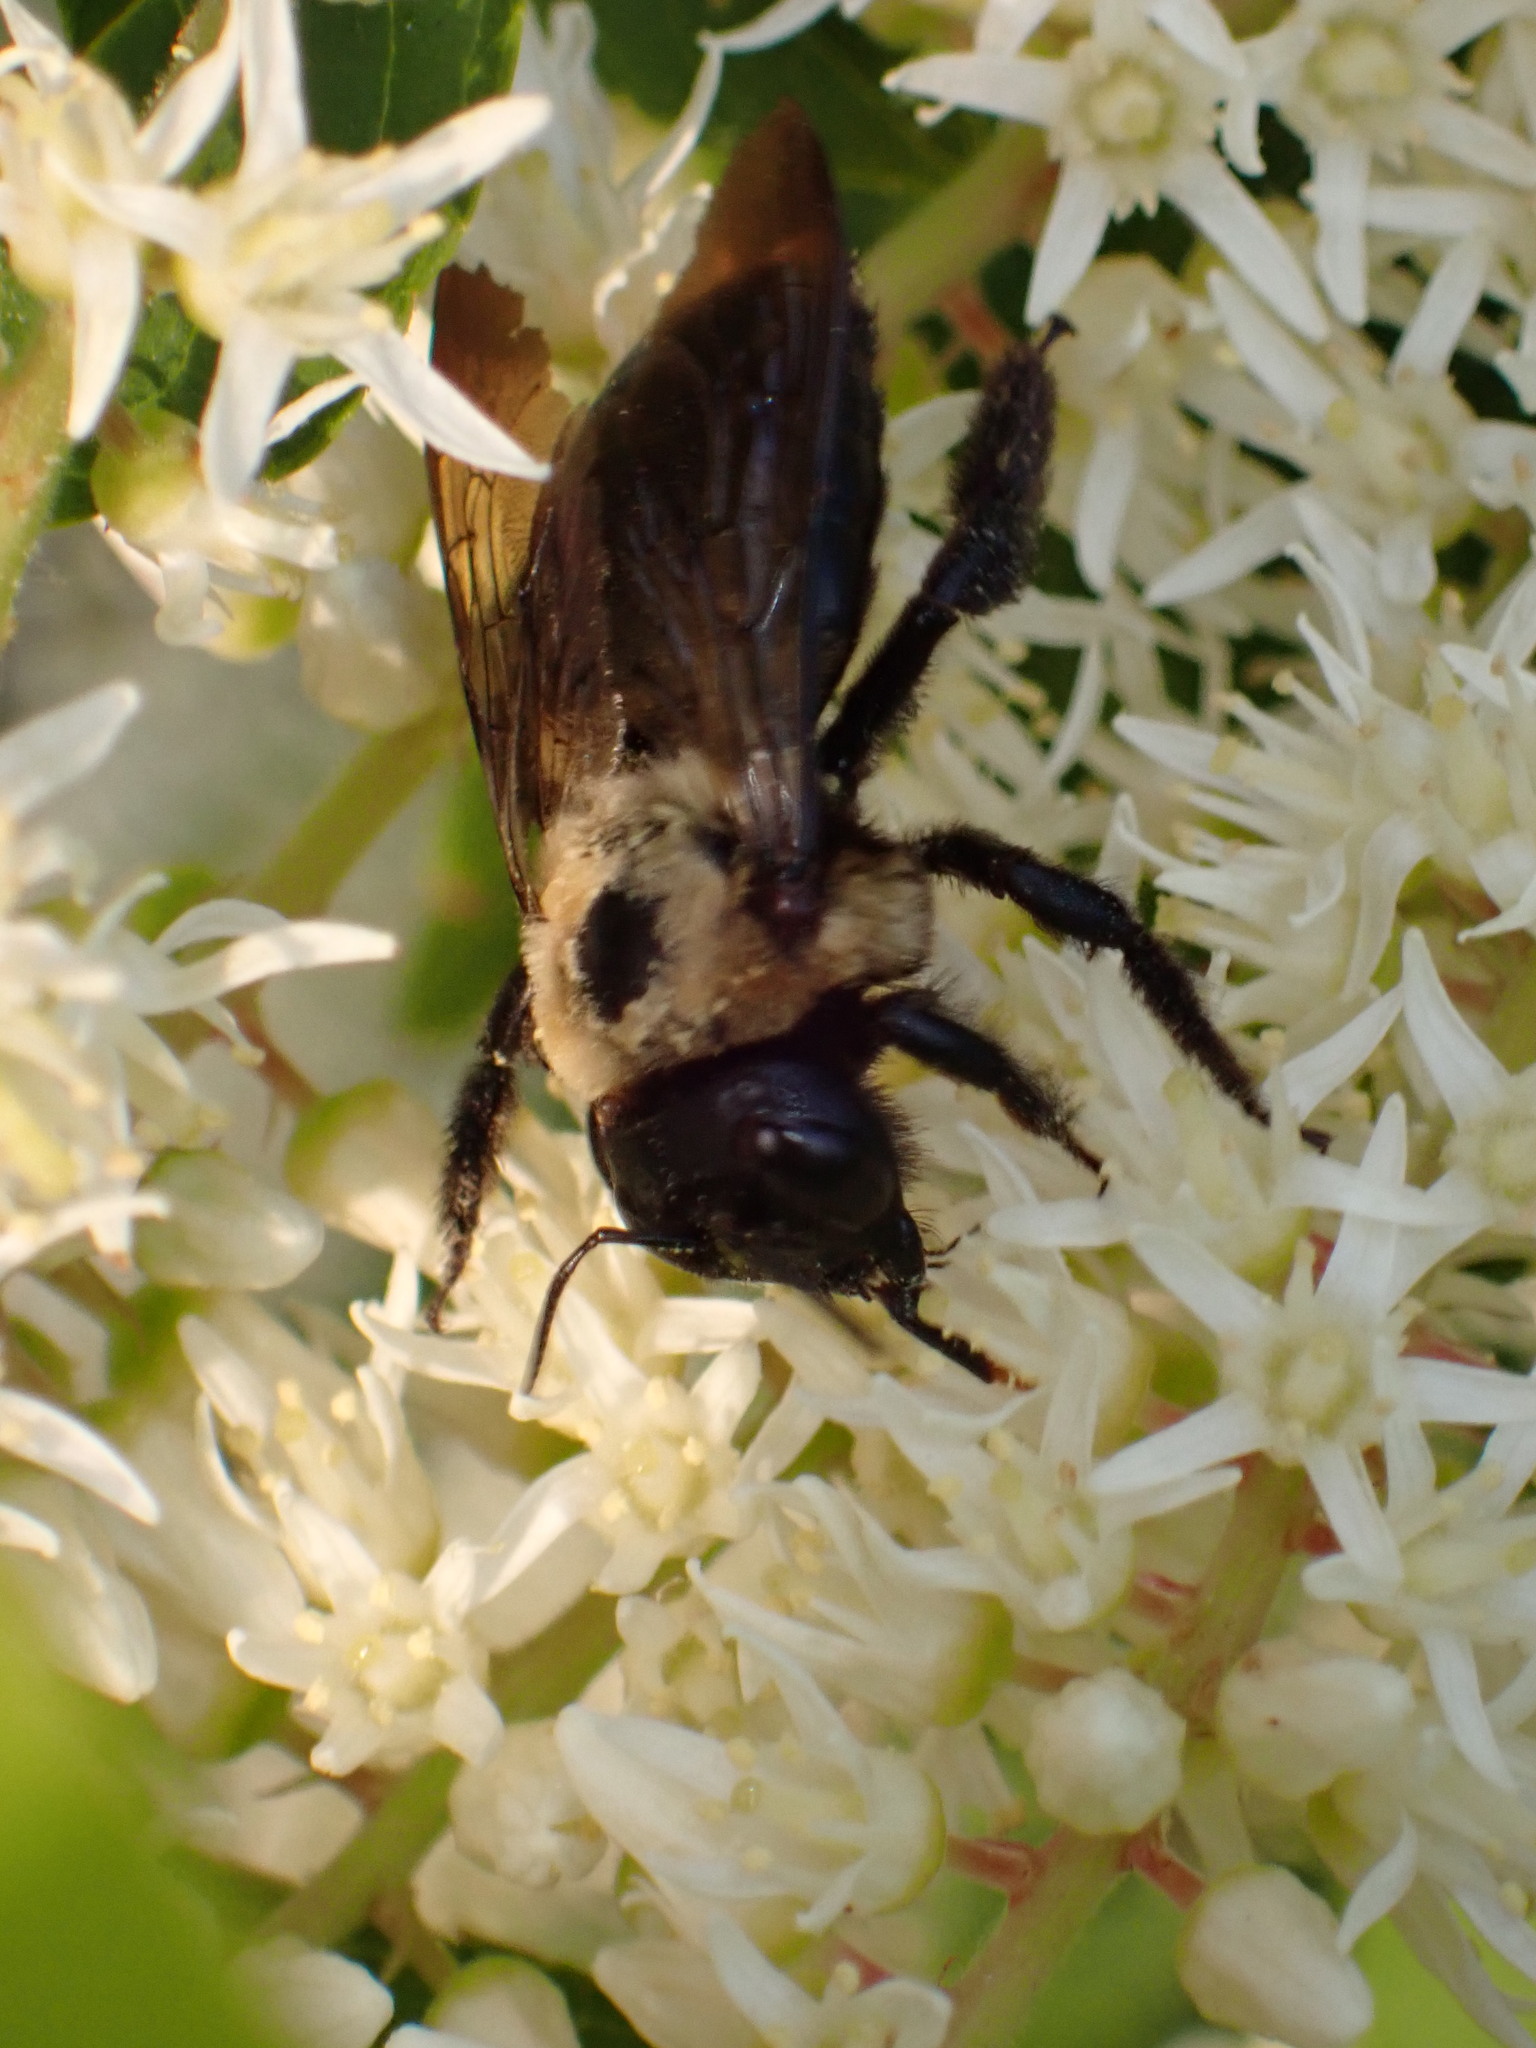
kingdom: Animalia
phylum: Arthropoda
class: Insecta
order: Hymenoptera
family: Apidae
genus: Xylocopa
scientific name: Xylocopa virginica
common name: Carpenter bee
